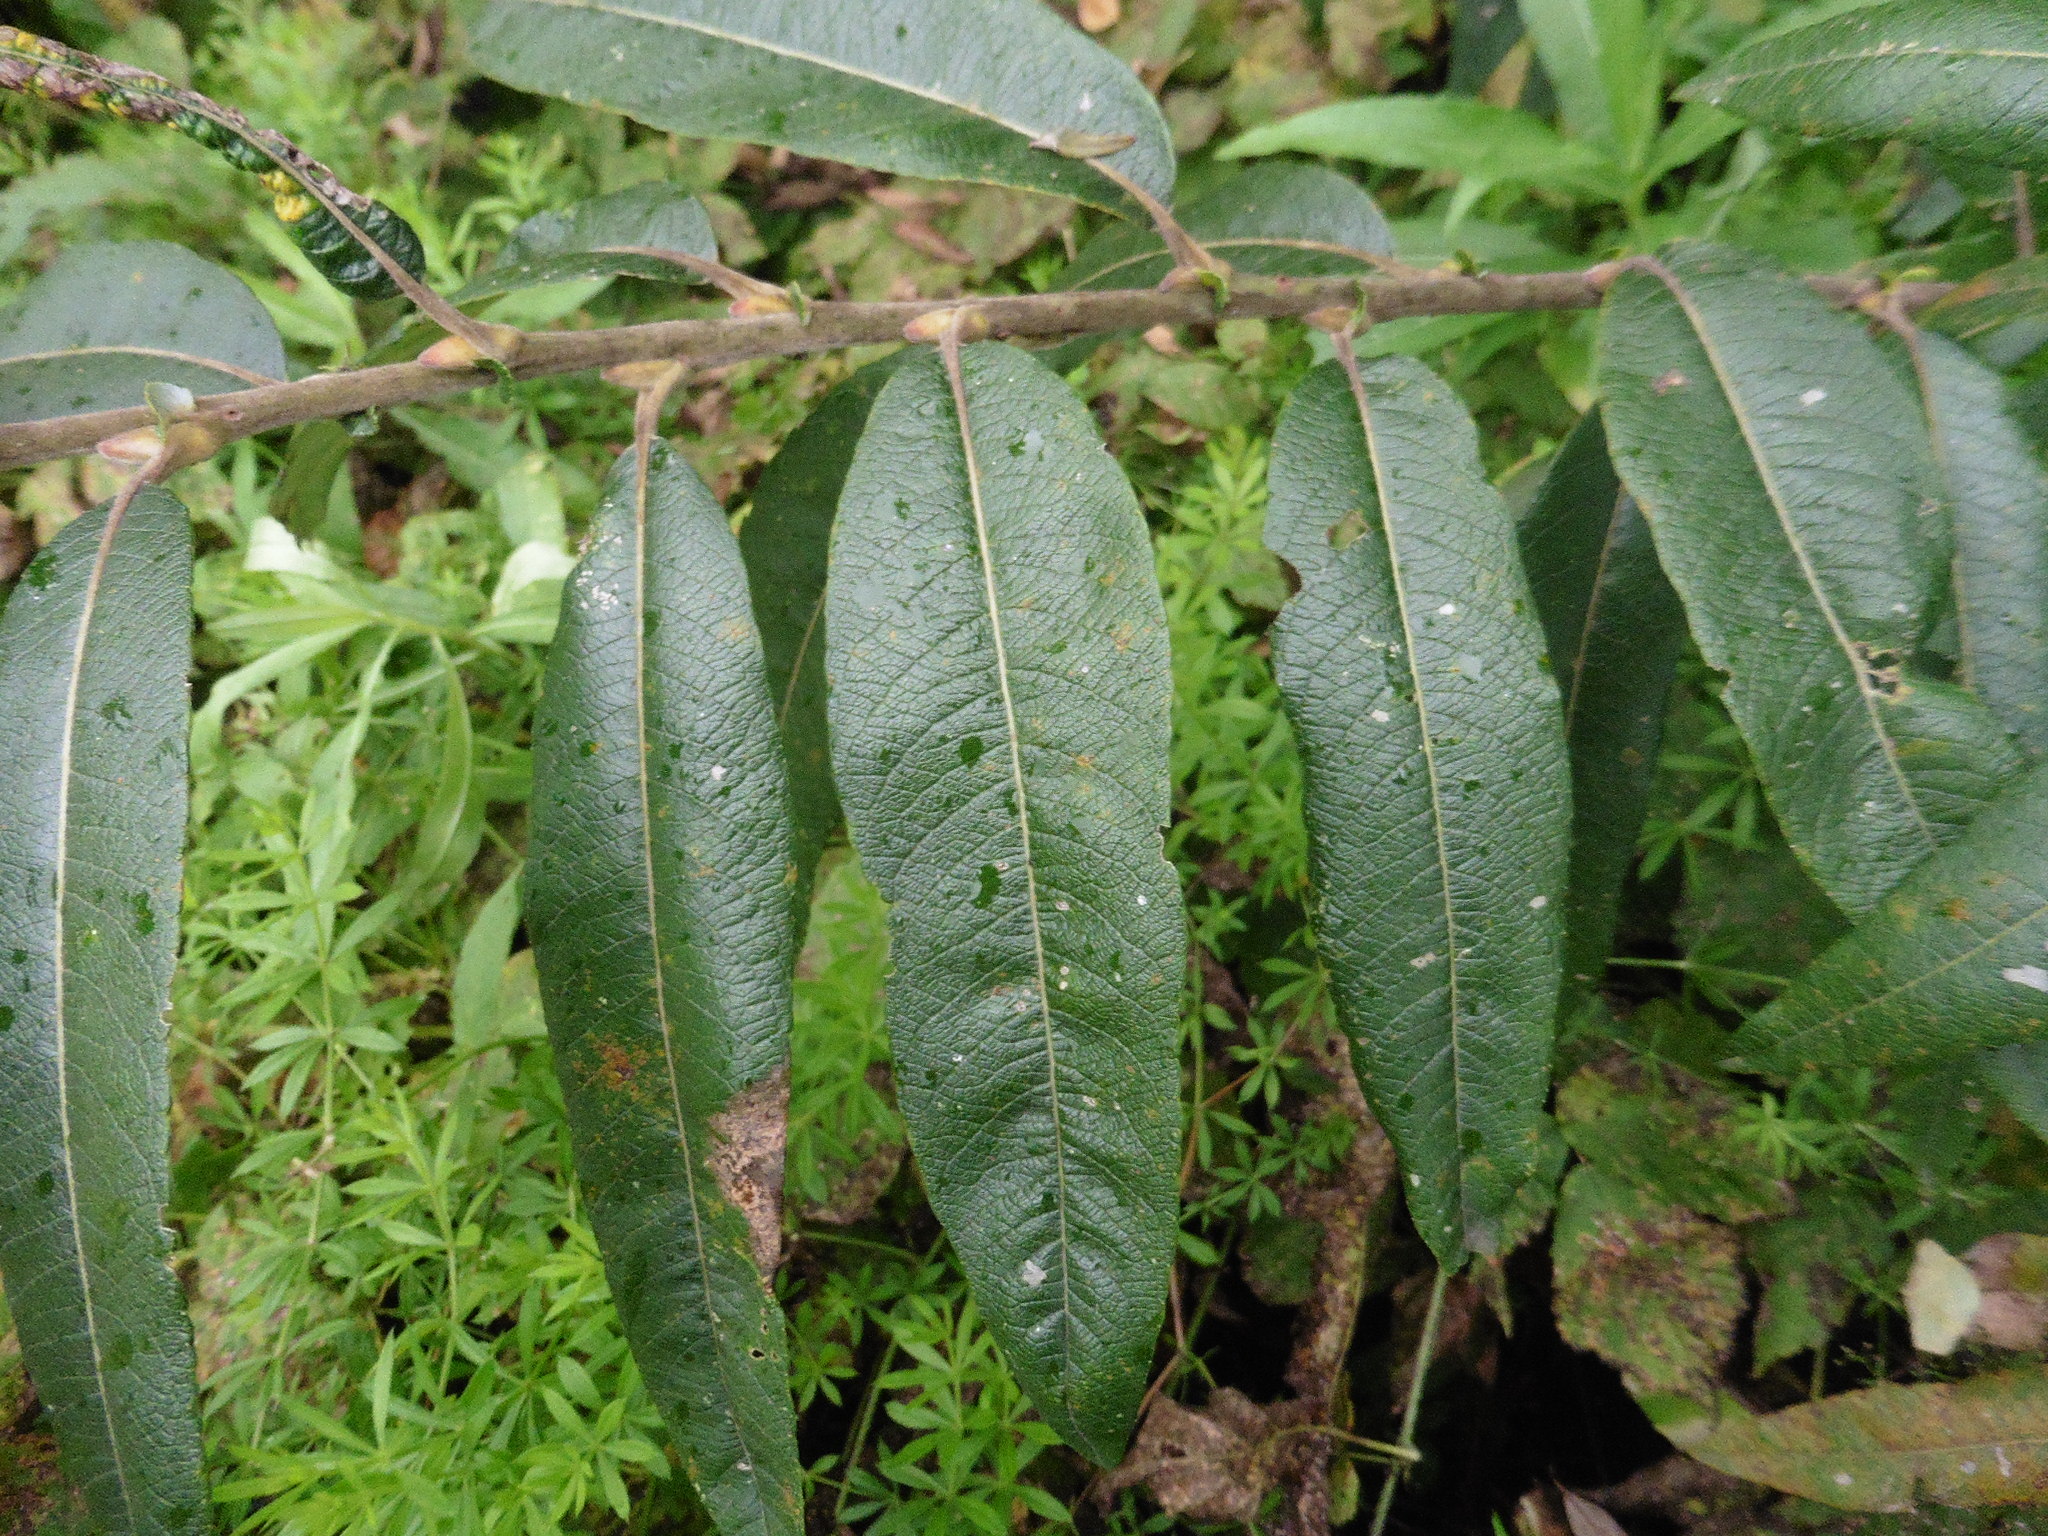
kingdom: Plantae
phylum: Tracheophyta
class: Magnoliopsida
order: Malpighiales
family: Salicaceae
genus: Salix
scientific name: Salix gmelinii
